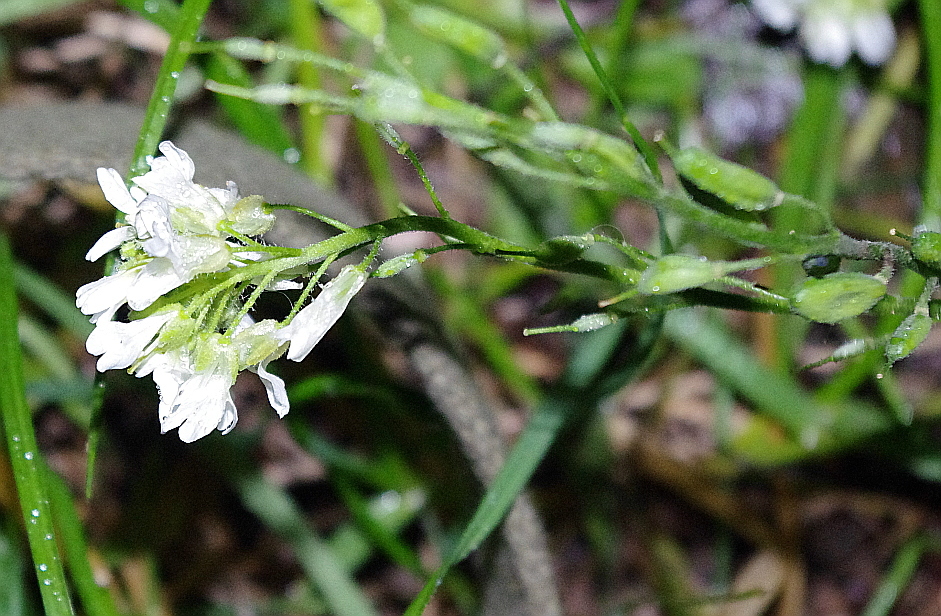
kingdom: Plantae
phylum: Tracheophyta
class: Magnoliopsida
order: Brassicales
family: Brassicaceae
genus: Berteroa
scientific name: Berteroa incana
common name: Hoary alison
